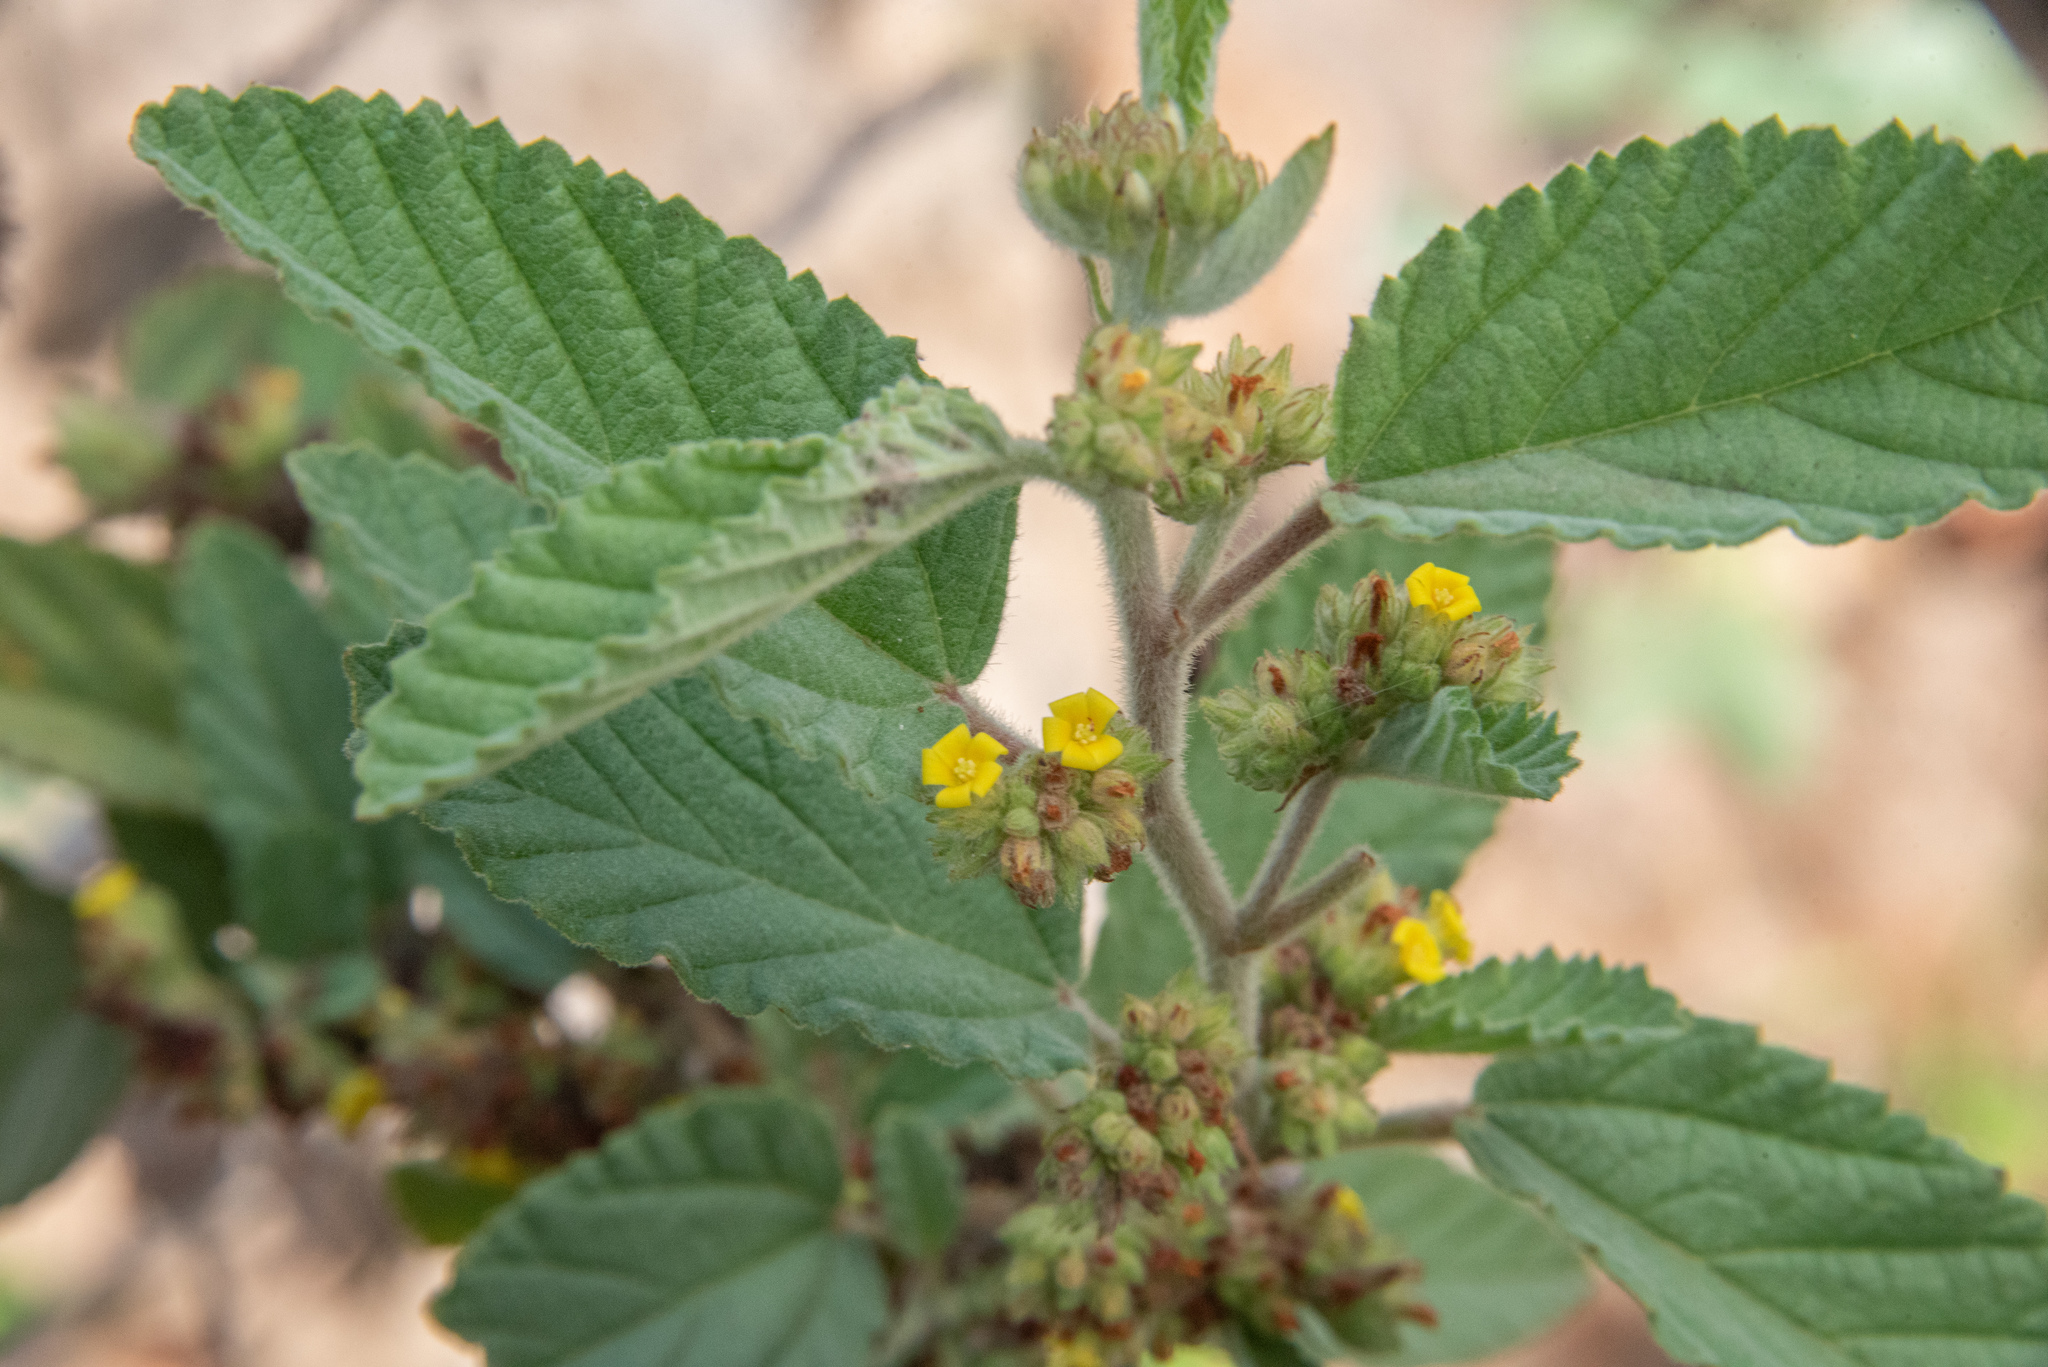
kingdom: Plantae
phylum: Tracheophyta
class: Magnoliopsida
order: Malvales
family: Malvaceae
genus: Waltheria
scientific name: Waltheria indica
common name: Leather-coat
